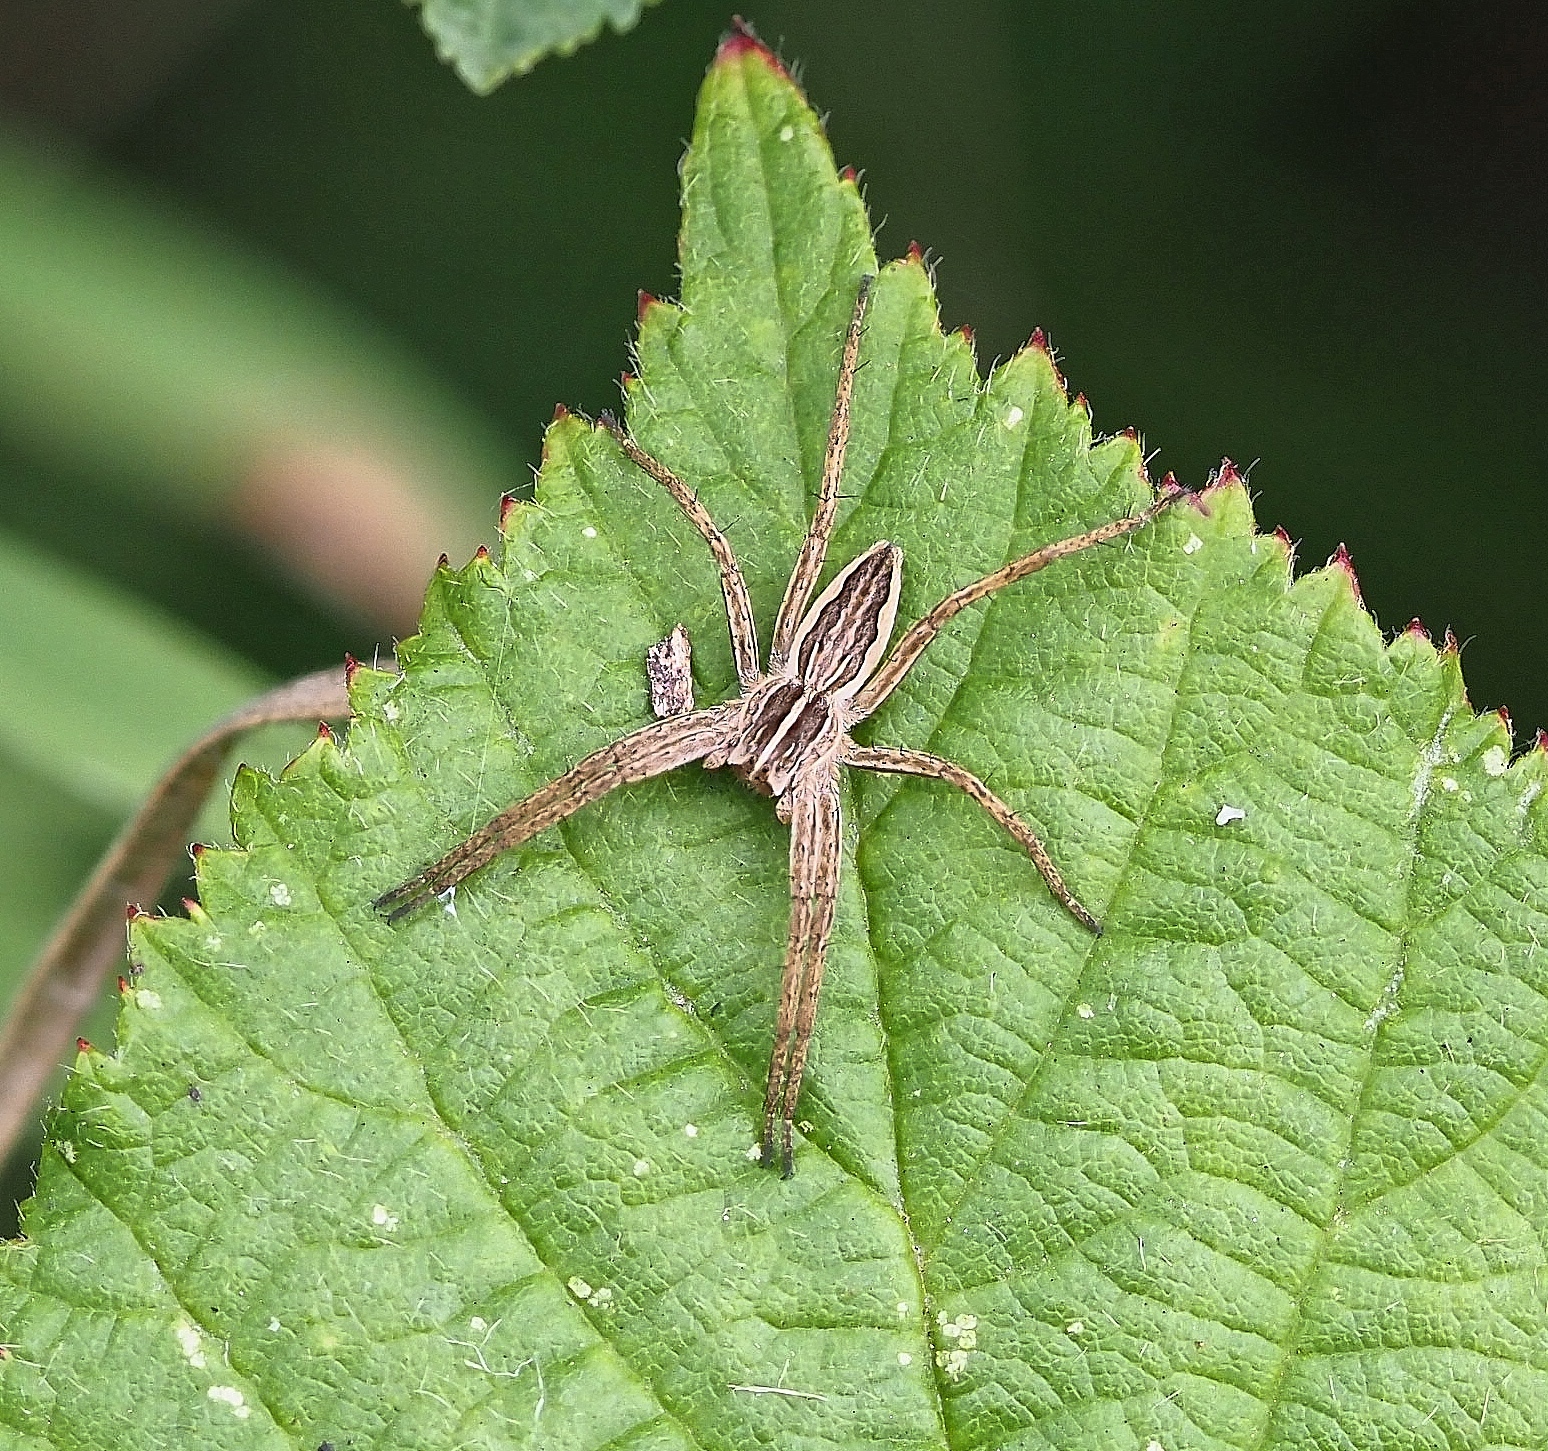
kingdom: Animalia
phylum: Arthropoda
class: Arachnida
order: Araneae
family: Pisauridae
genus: Pisaura
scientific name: Pisaura mirabilis
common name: Tent spider
